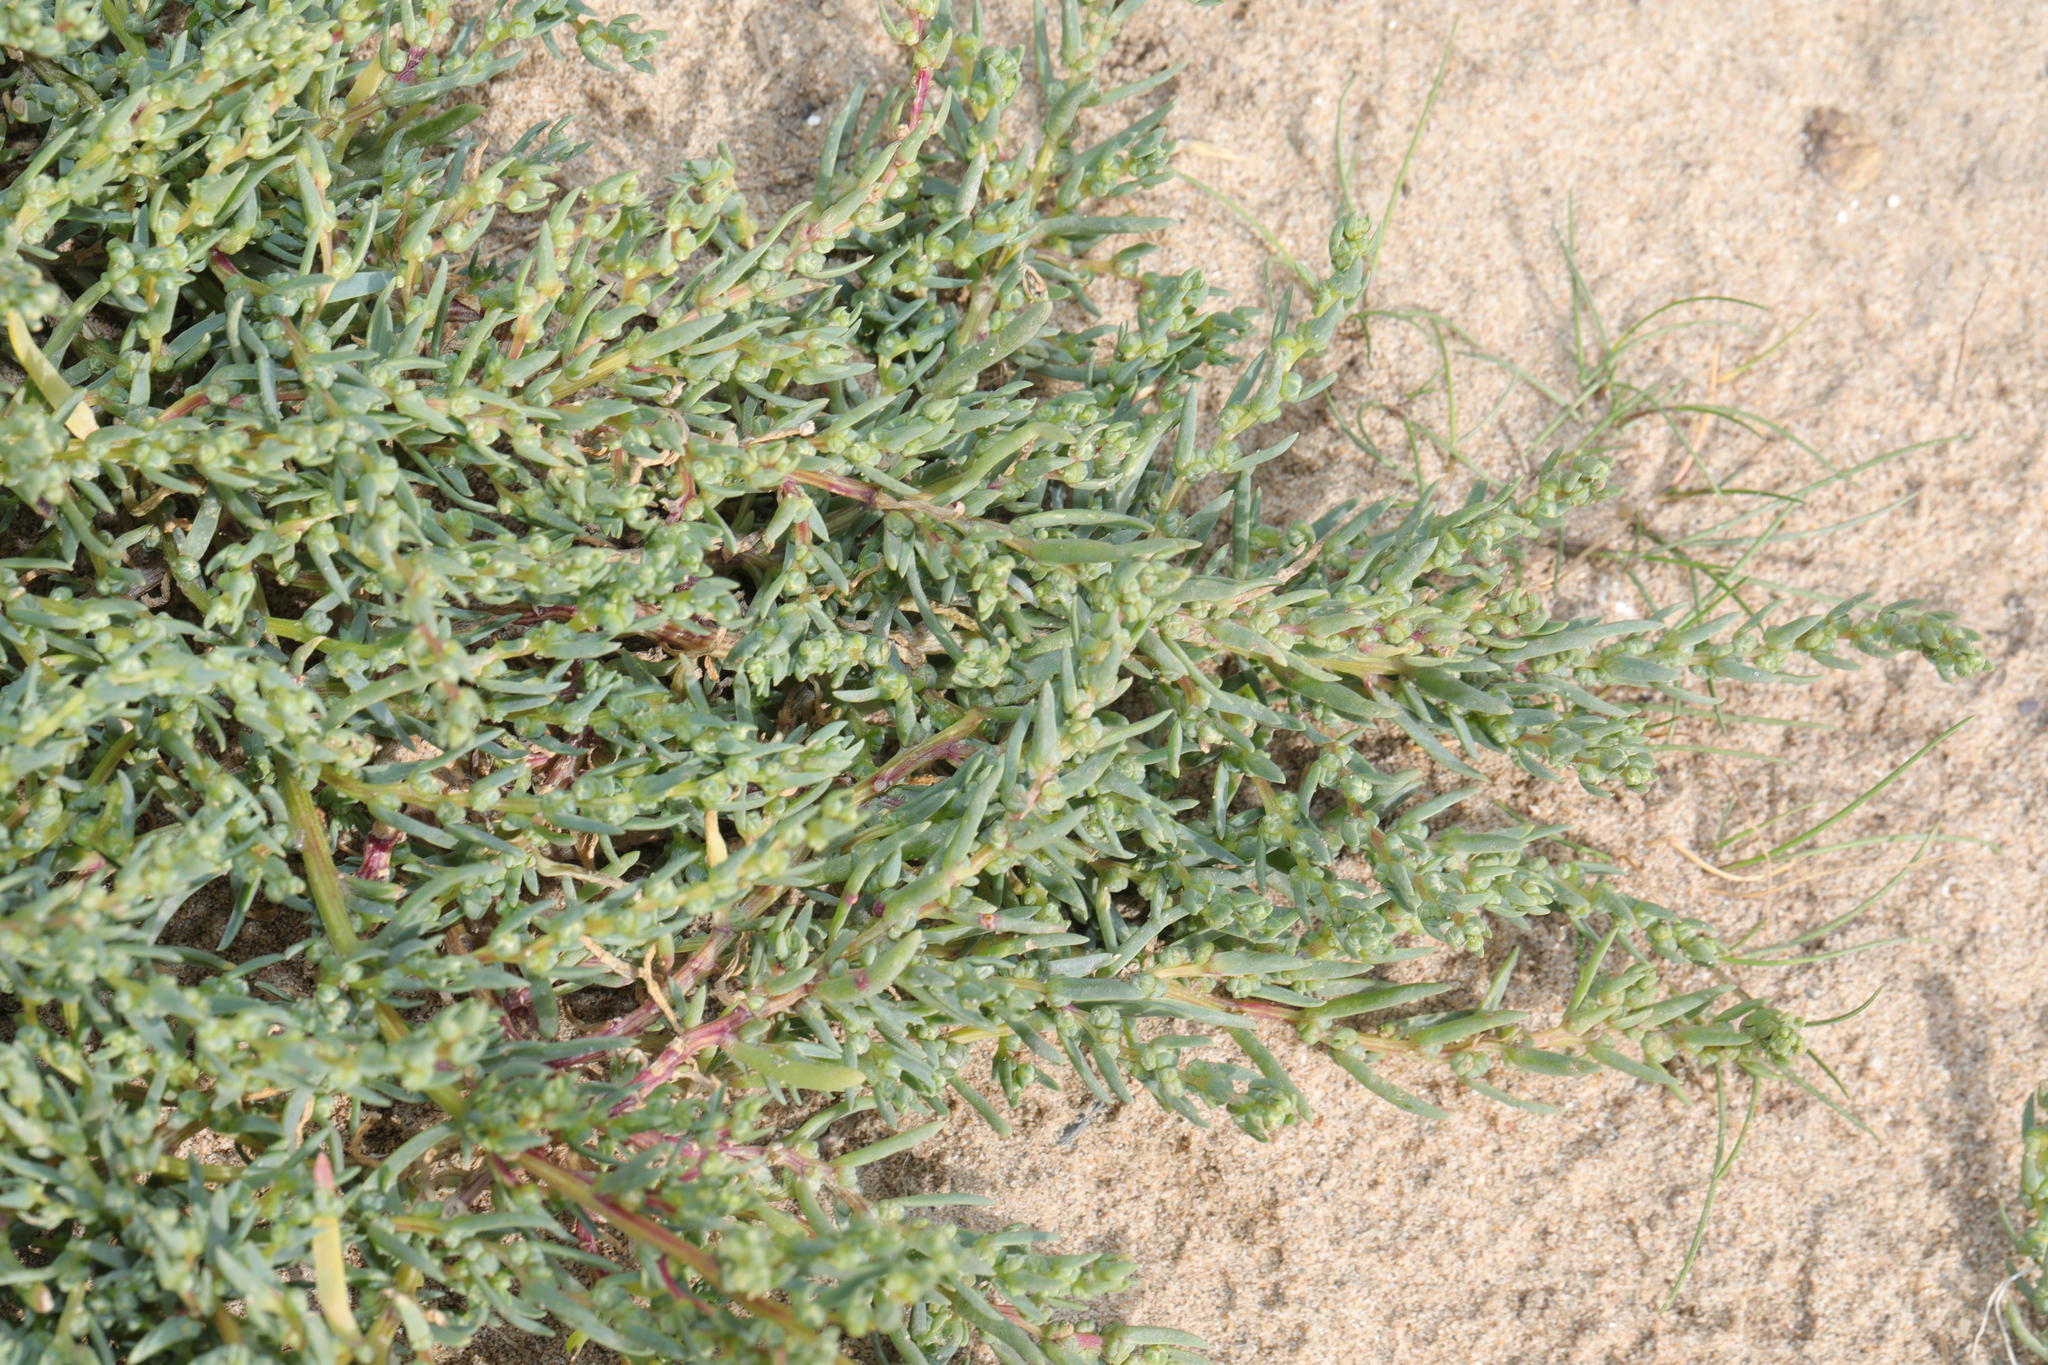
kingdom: Plantae
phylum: Tracheophyta
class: Magnoliopsida
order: Caryophyllales
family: Amaranthaceae
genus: Suaeda
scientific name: Suaeda maritima
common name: Annual sea-blite
